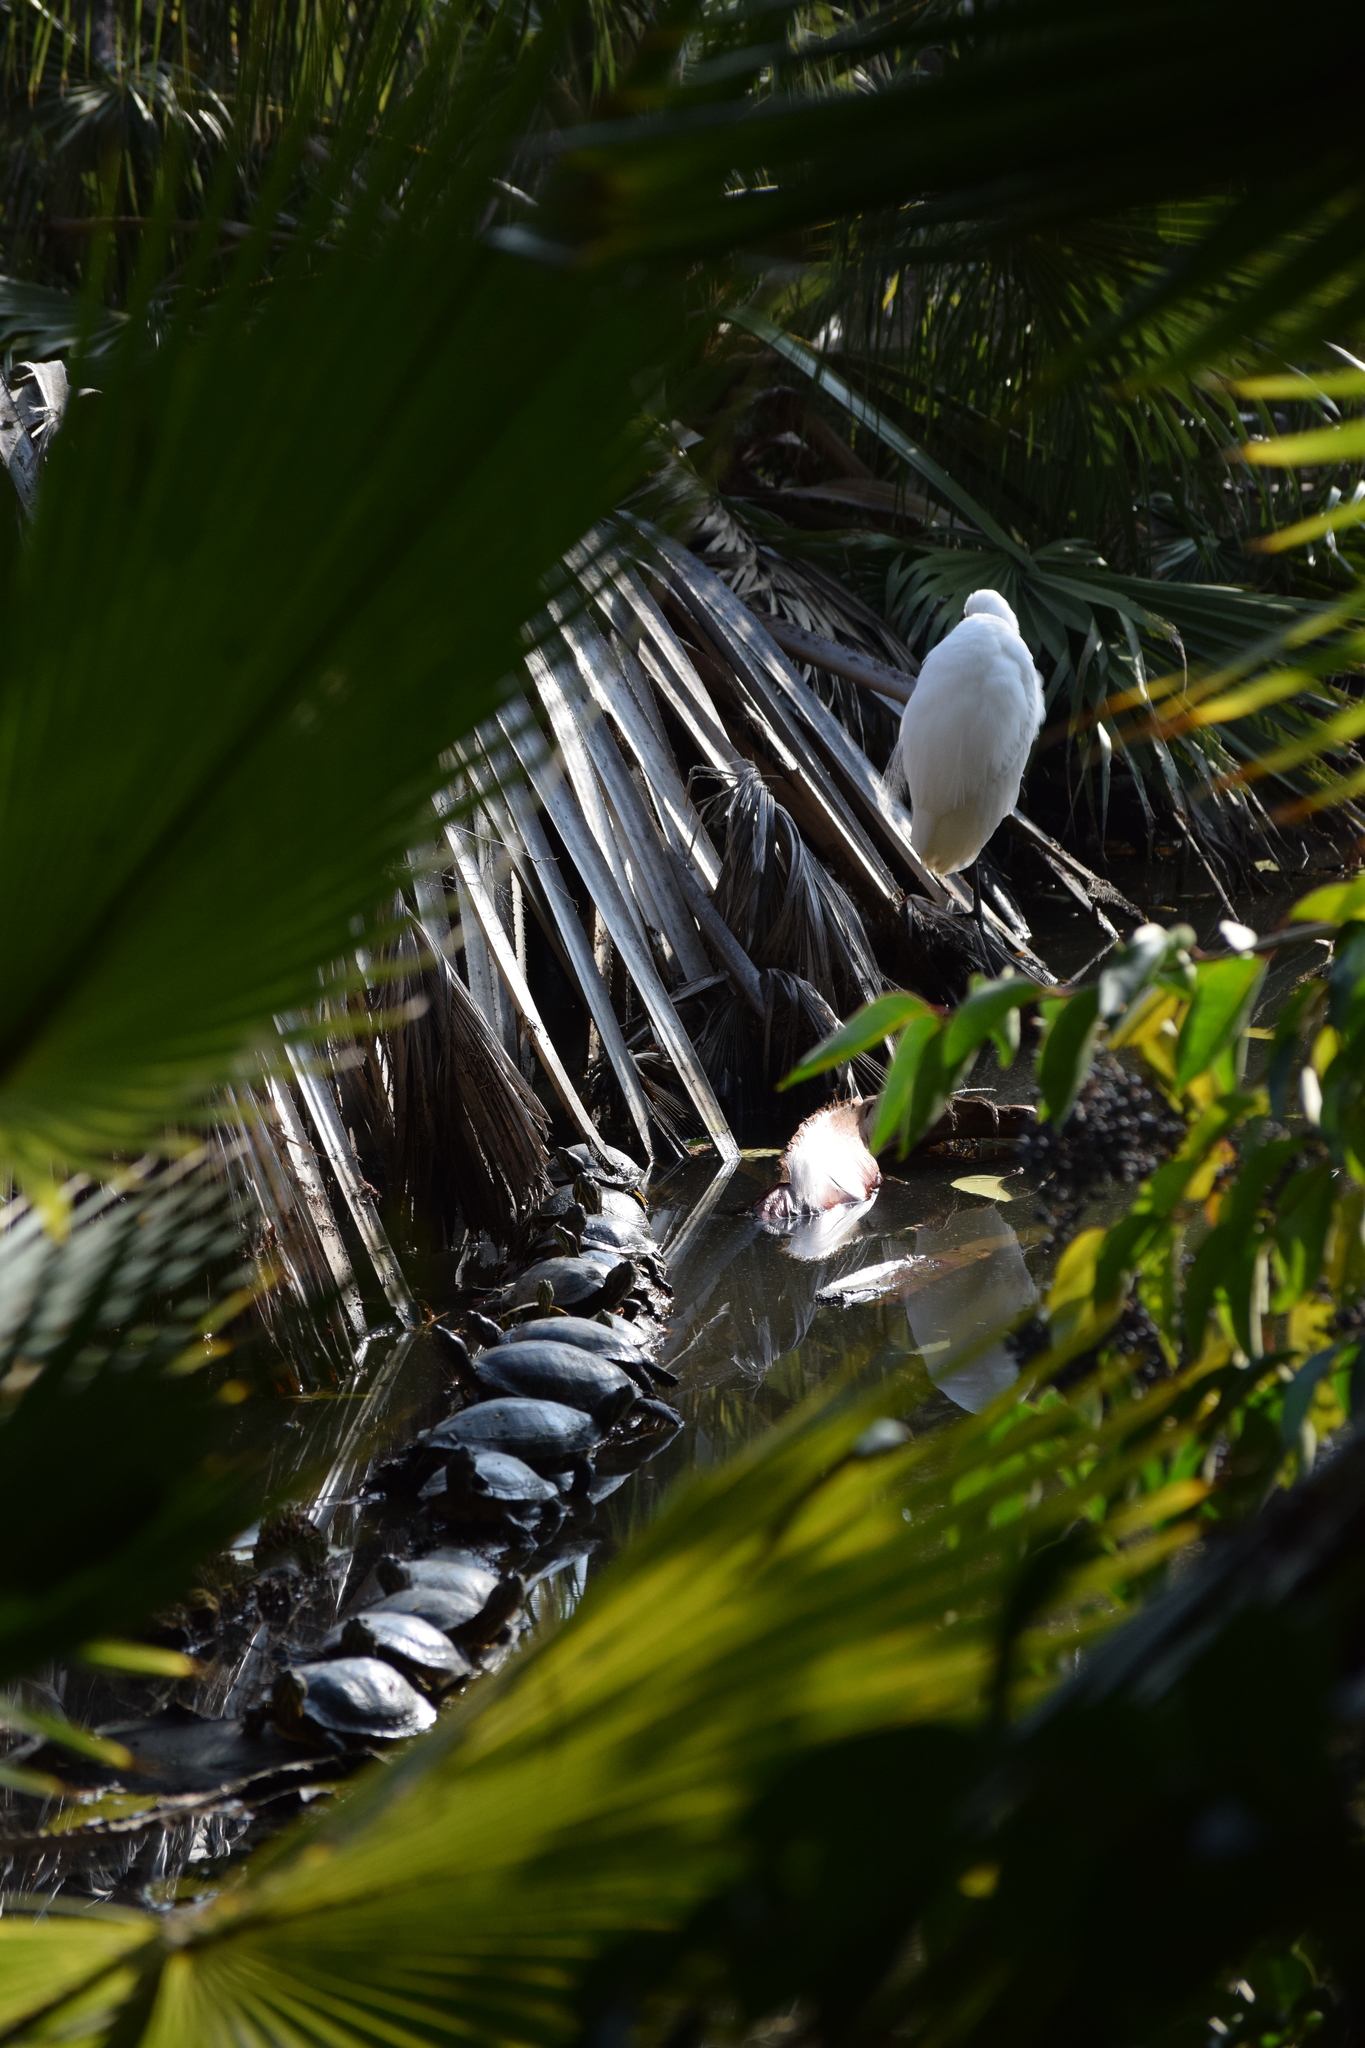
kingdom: Animalia
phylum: Chordata
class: Testudines
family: Emydidae
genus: Trachemys
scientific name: Trachemys scripta
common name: Slider
